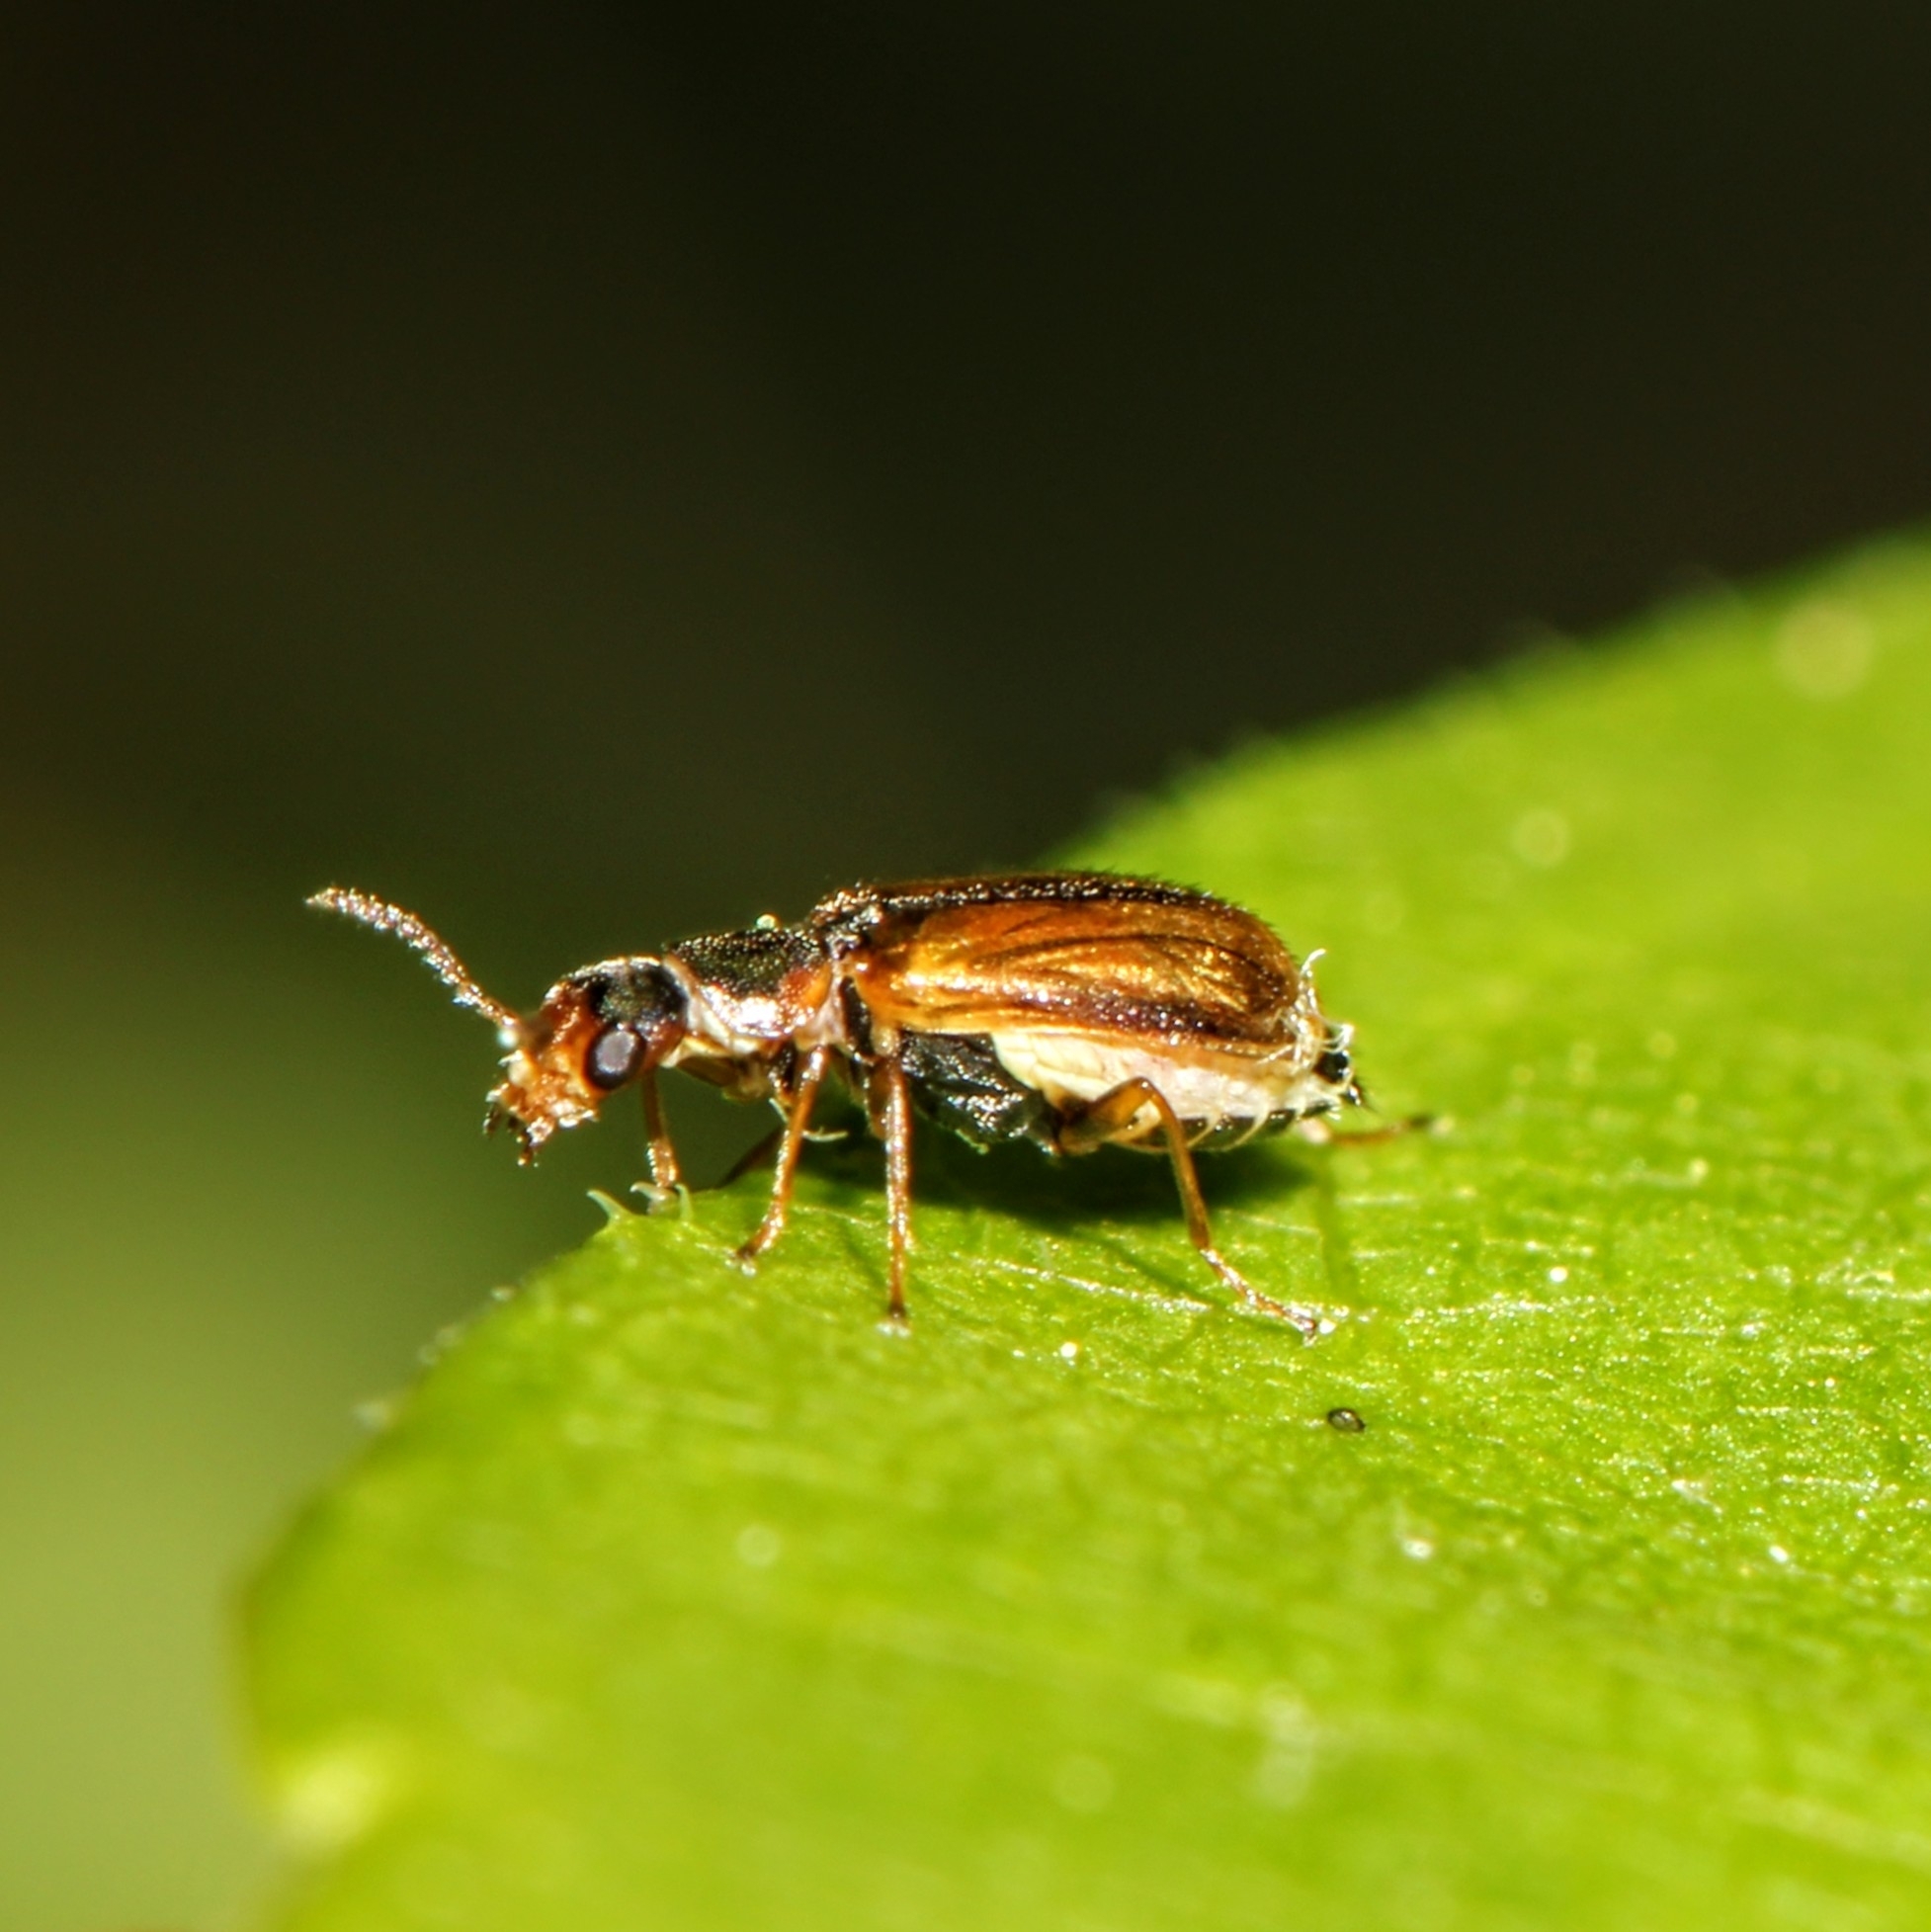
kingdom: Animalia
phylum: Arthropoda
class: Insecta
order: Coleoptera
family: Malachiidae
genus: Attalus
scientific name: Attalus
